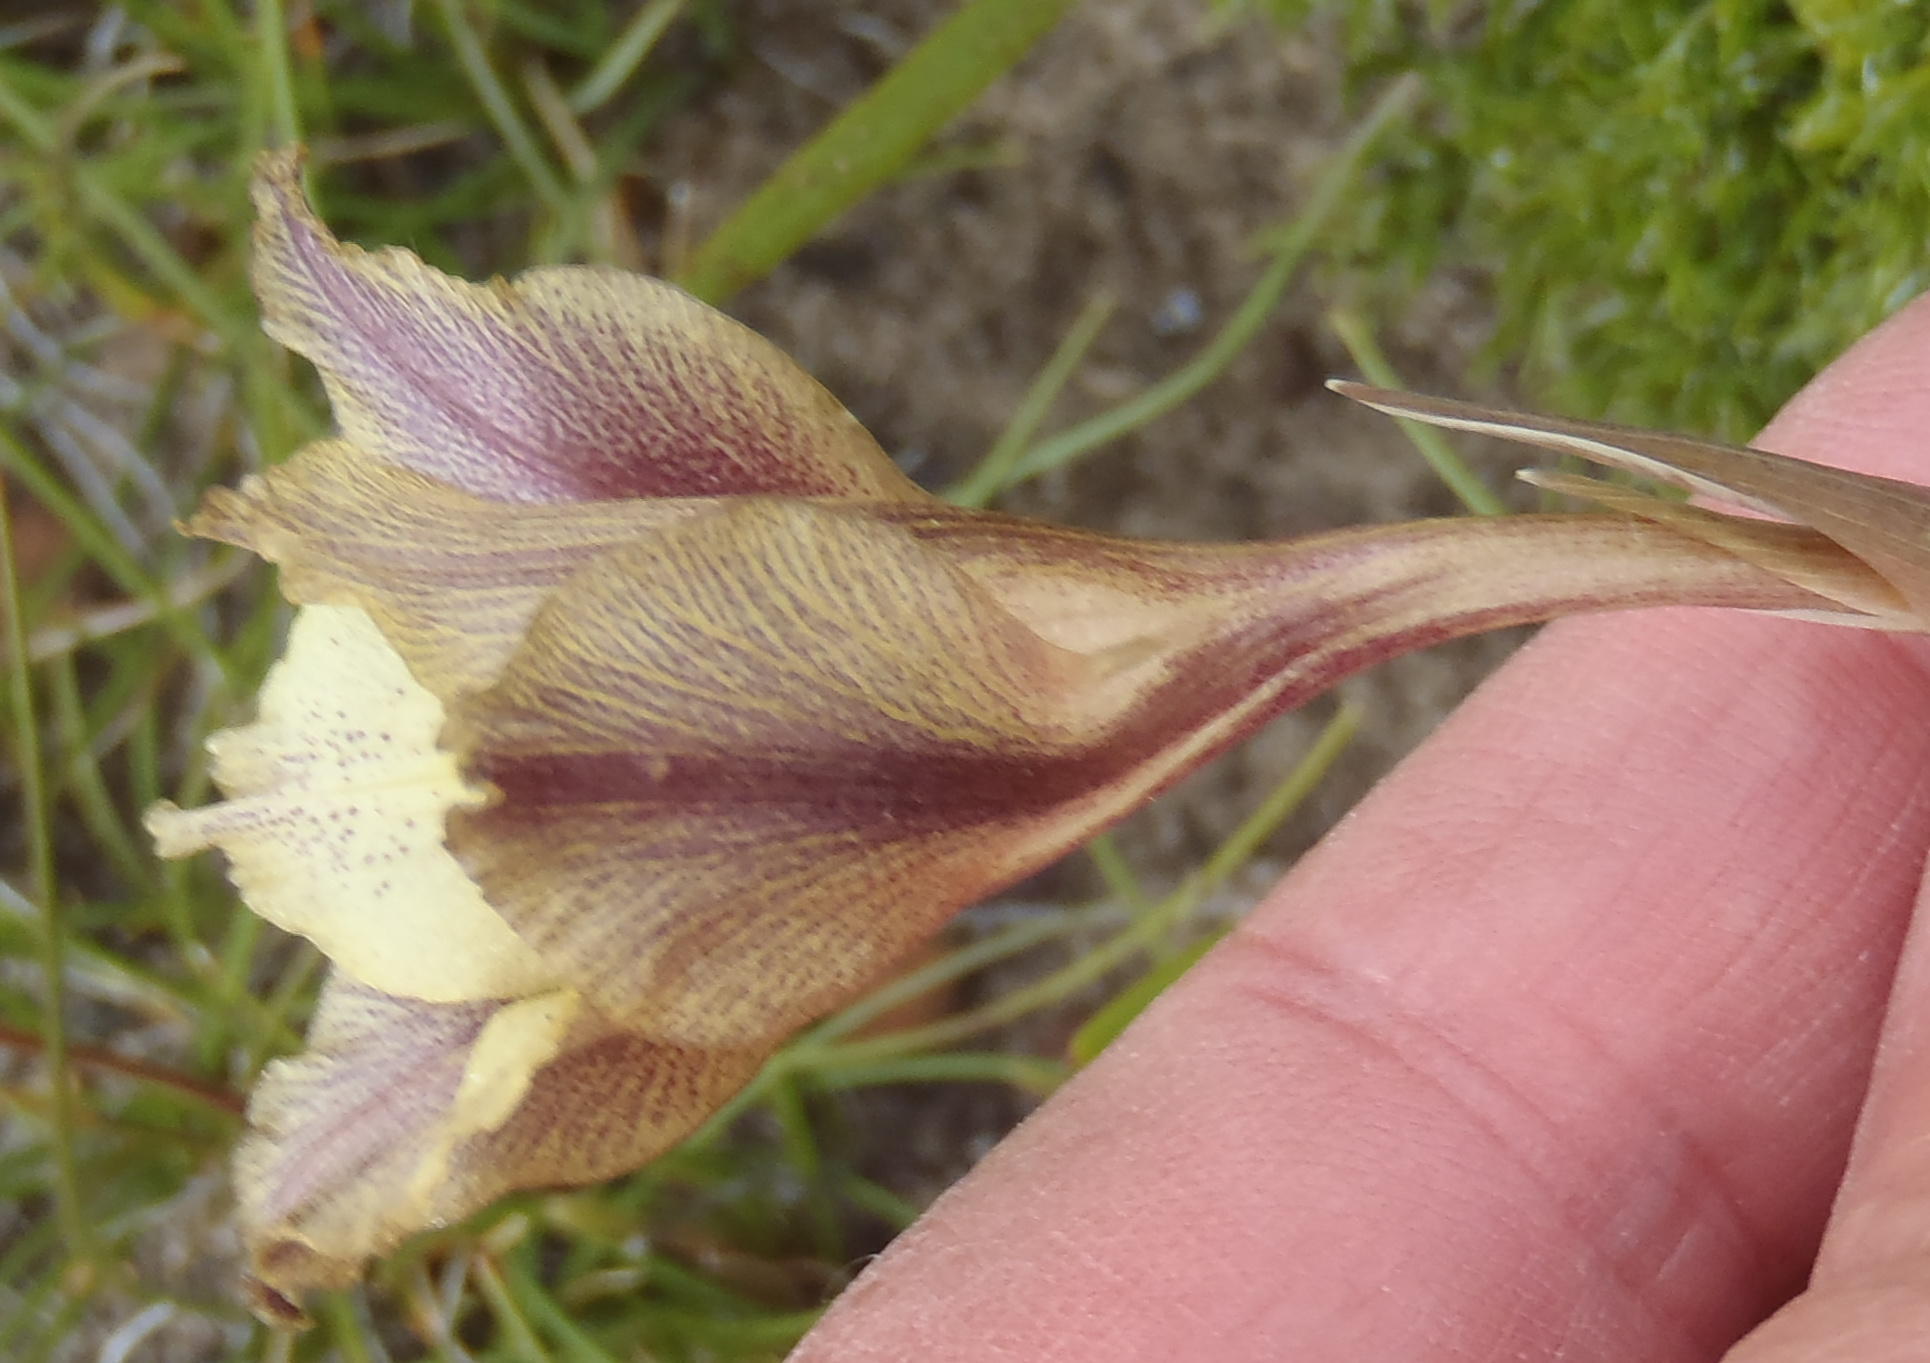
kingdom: Plantae
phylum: Tracheophyta
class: Liliopsida
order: Asparagales
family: Iridaceae
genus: Gladiolus
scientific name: Gladiolus maculatus
